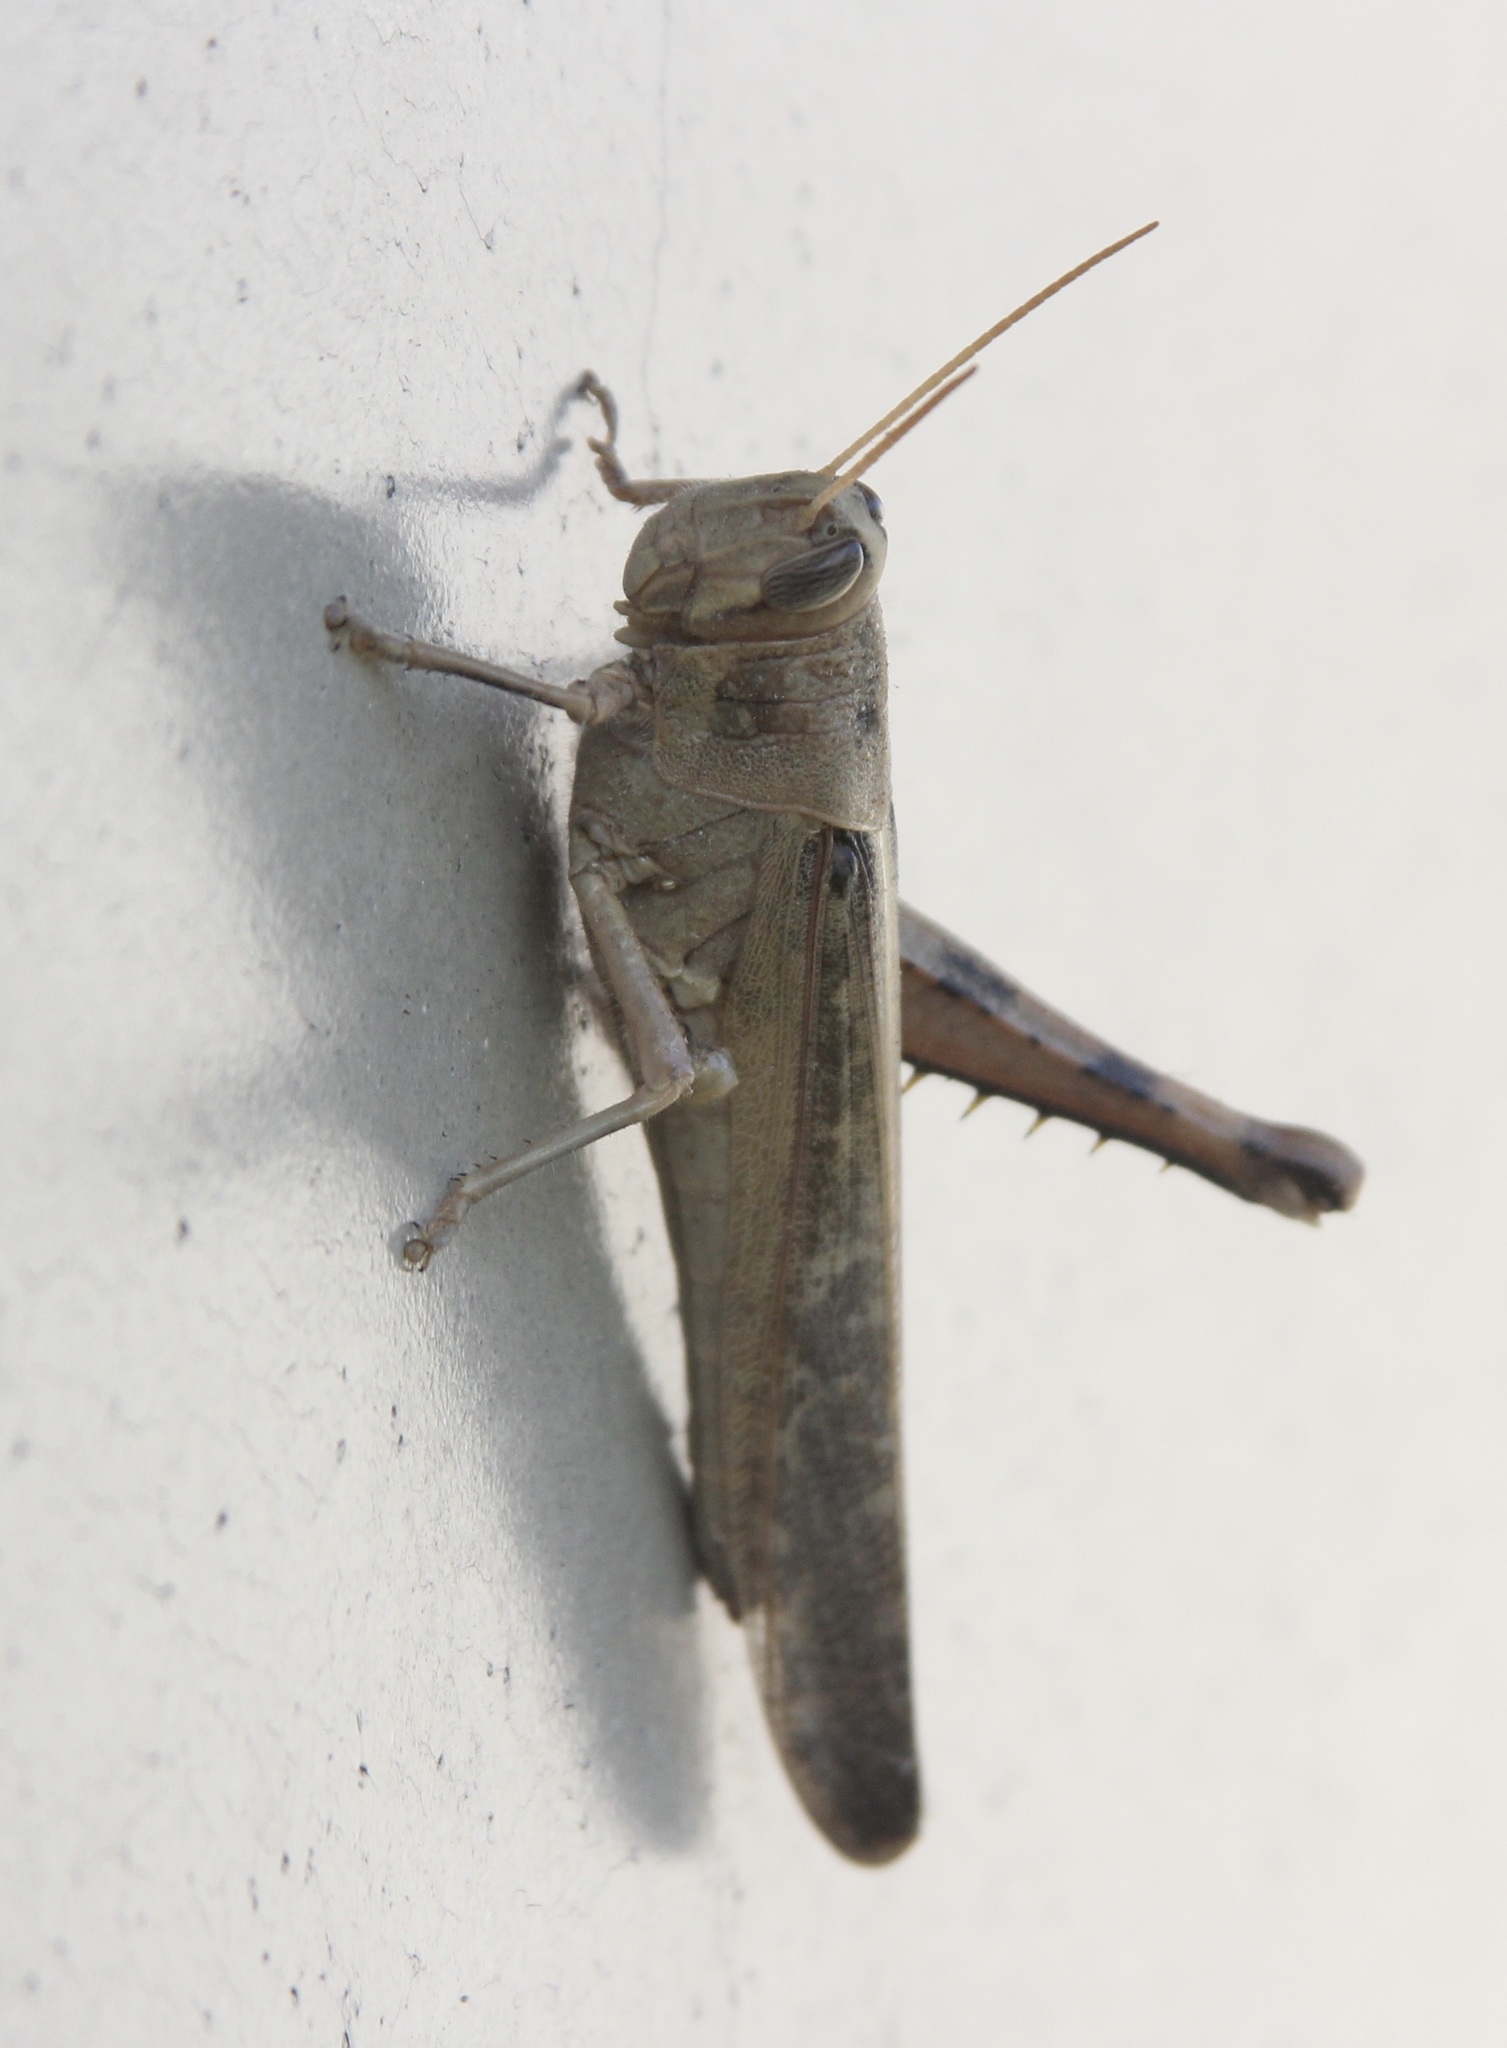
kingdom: Animalia
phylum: Arthropoda
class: Insecta
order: Orthoptera
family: Acrididae
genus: Schistocerca
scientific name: Schistocerca nitens
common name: Vagrant grasshopper
